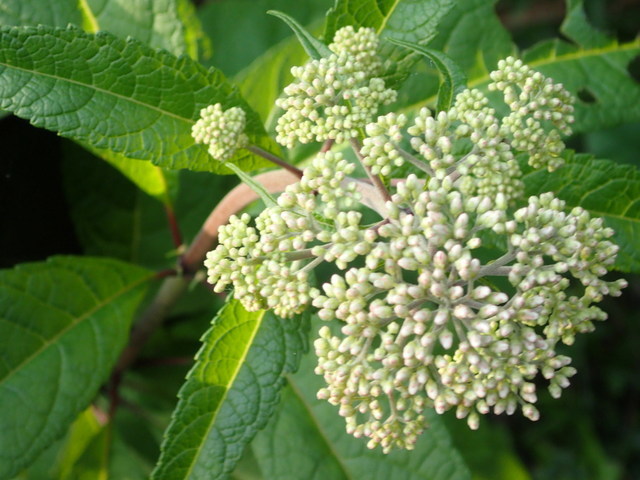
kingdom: Plantae
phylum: Tracheophyta
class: Magnoliopsida
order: Asterales
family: Asteraceae
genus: Eutrochium
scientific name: Eutrochium fistulosum
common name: Trumpetweed
